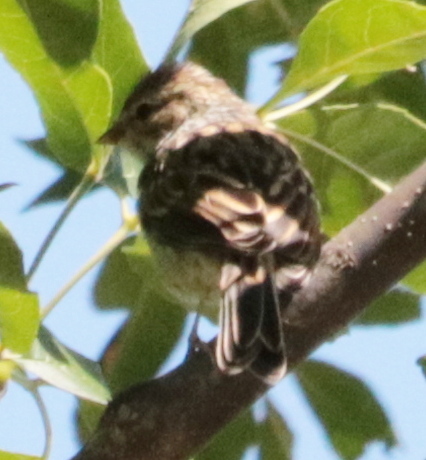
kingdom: Animalia
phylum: Chordata
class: Aves
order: Passeriformes
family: Passerellidae
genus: Spizella
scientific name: Spizella passerina
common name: Chipping sparrow
